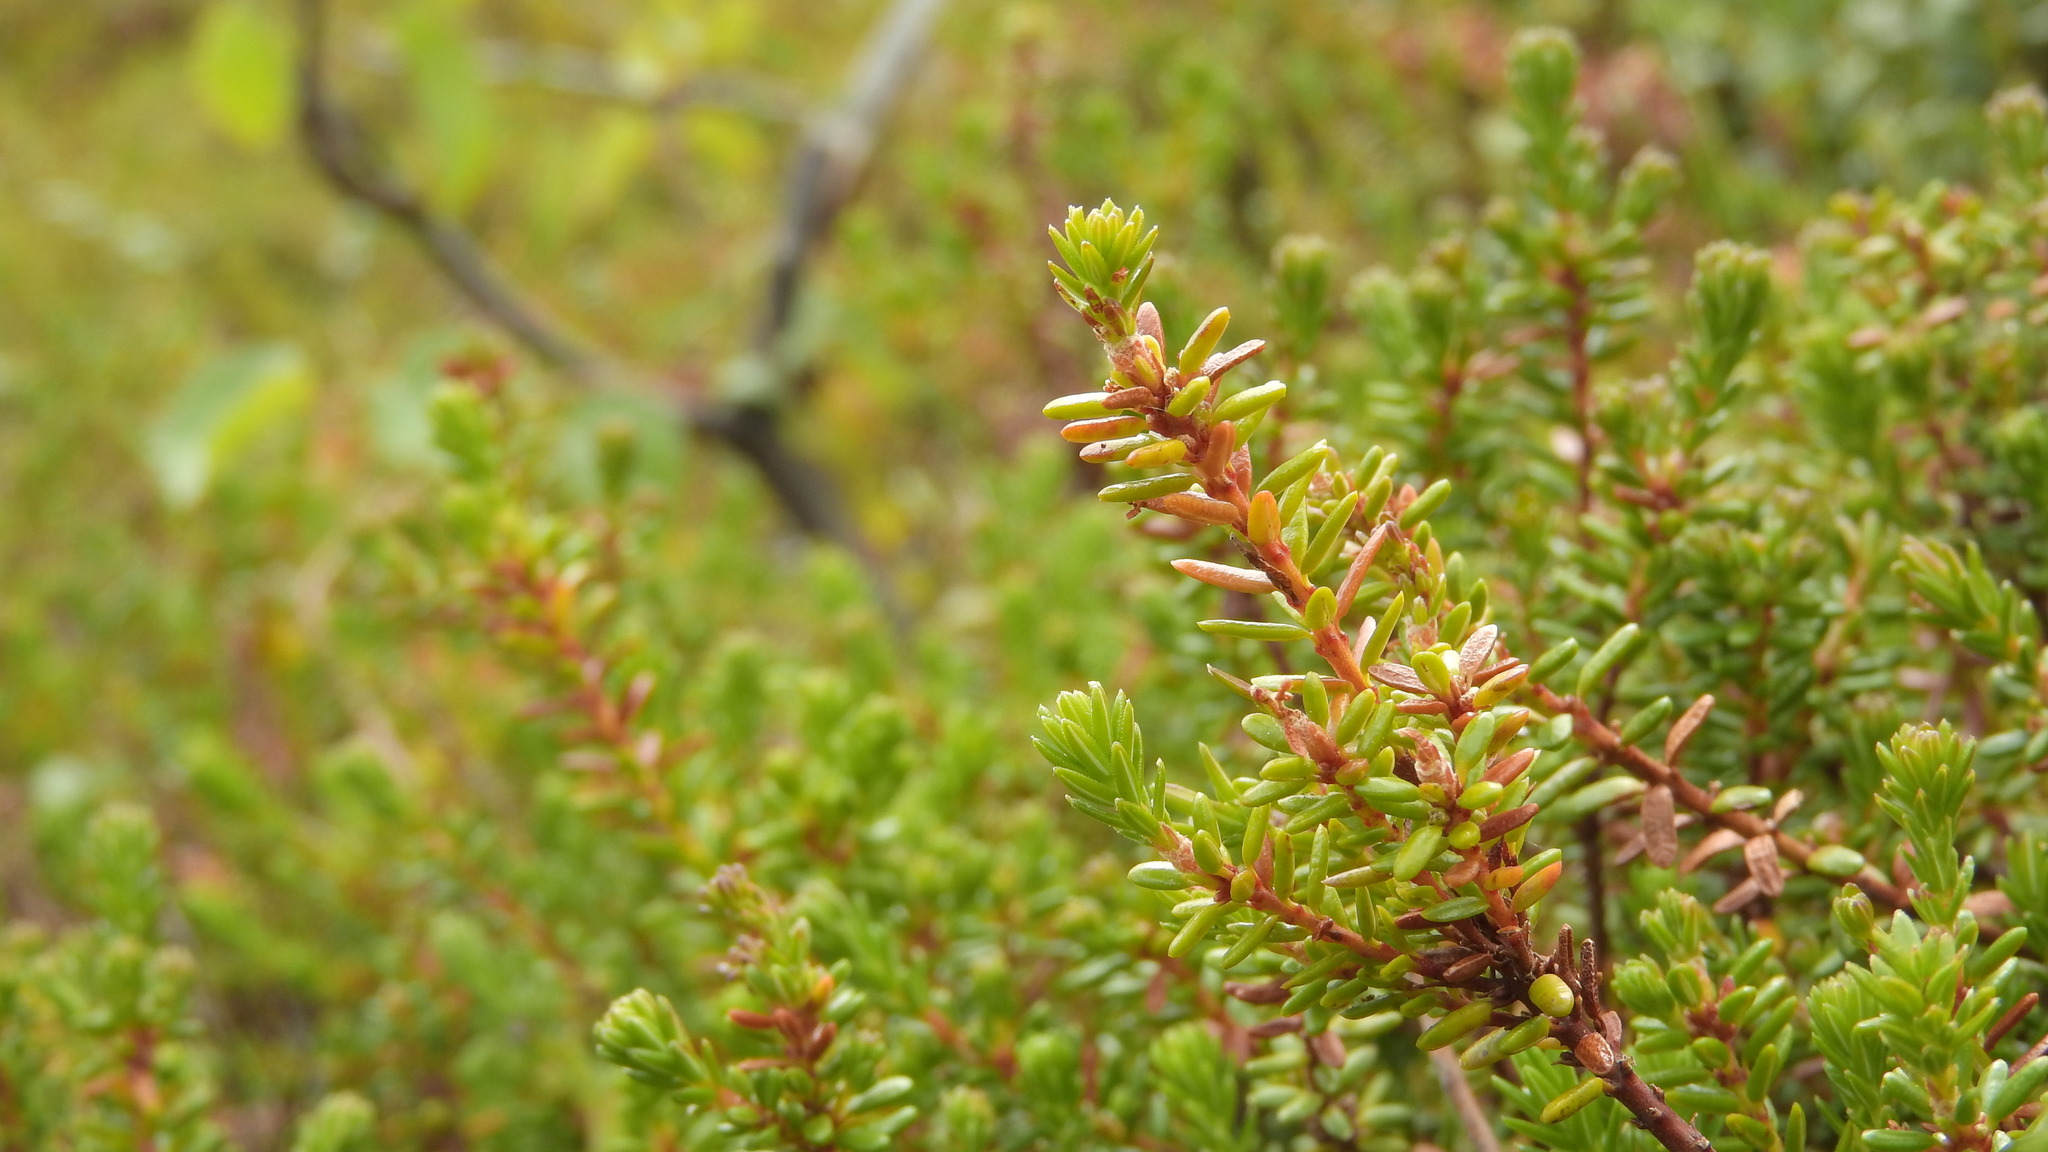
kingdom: Plantae
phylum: Tracheophyta
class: Magnoliopsida
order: Ericales
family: Ericaceae
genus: Empetrum
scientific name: Empetrum nigrum
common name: Black crowberry
